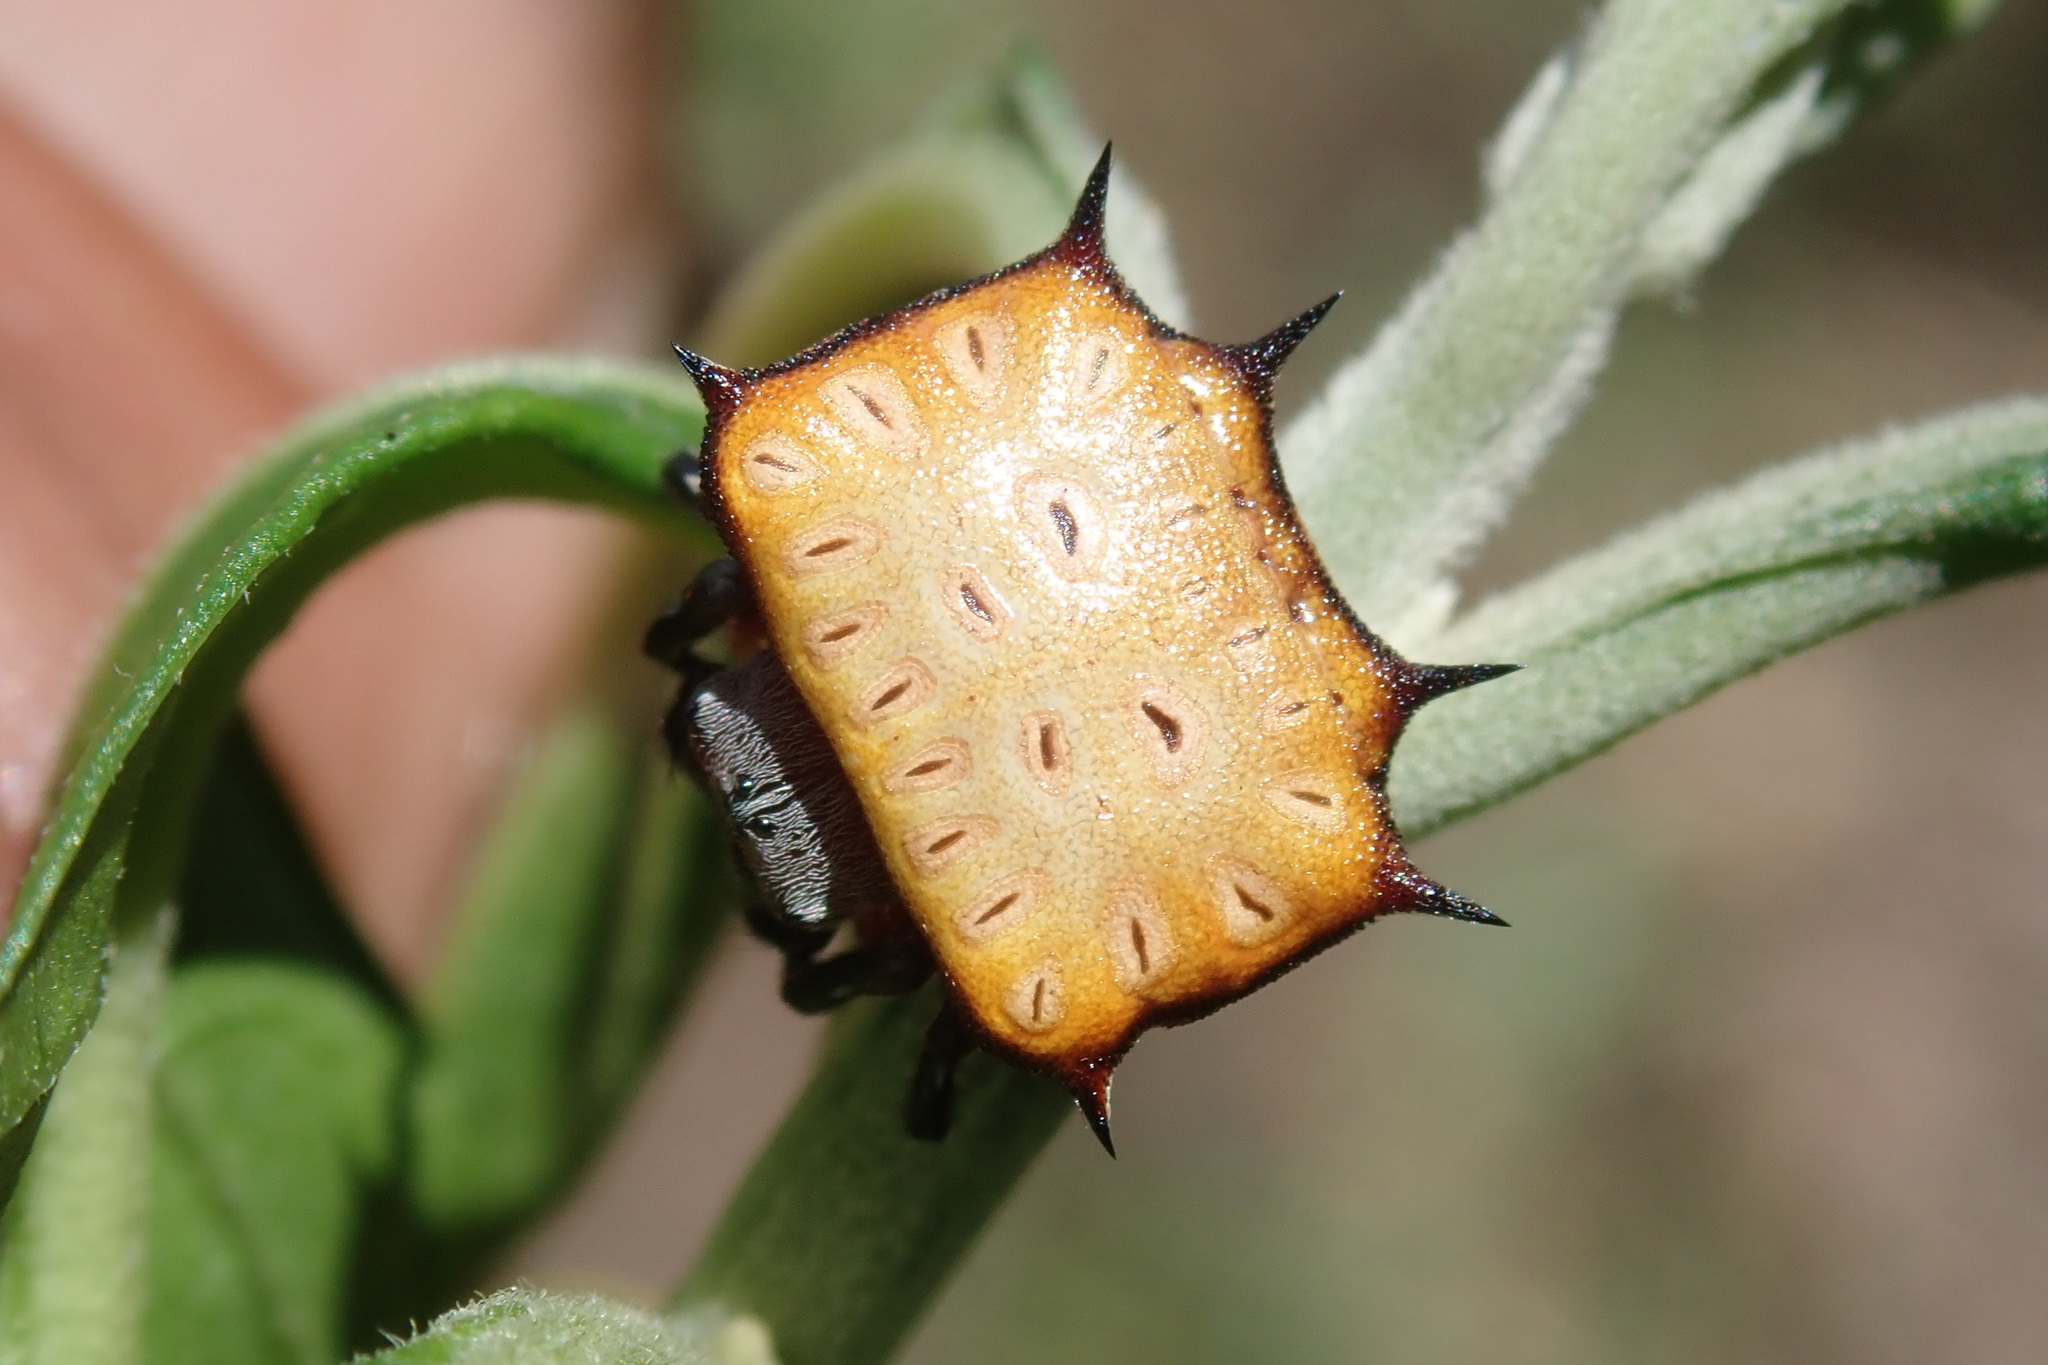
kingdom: Animalia
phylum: Arthropoda
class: Arachnida
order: Araneae
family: Araneidae
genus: Isoxya
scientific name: Isoxya tabulata
